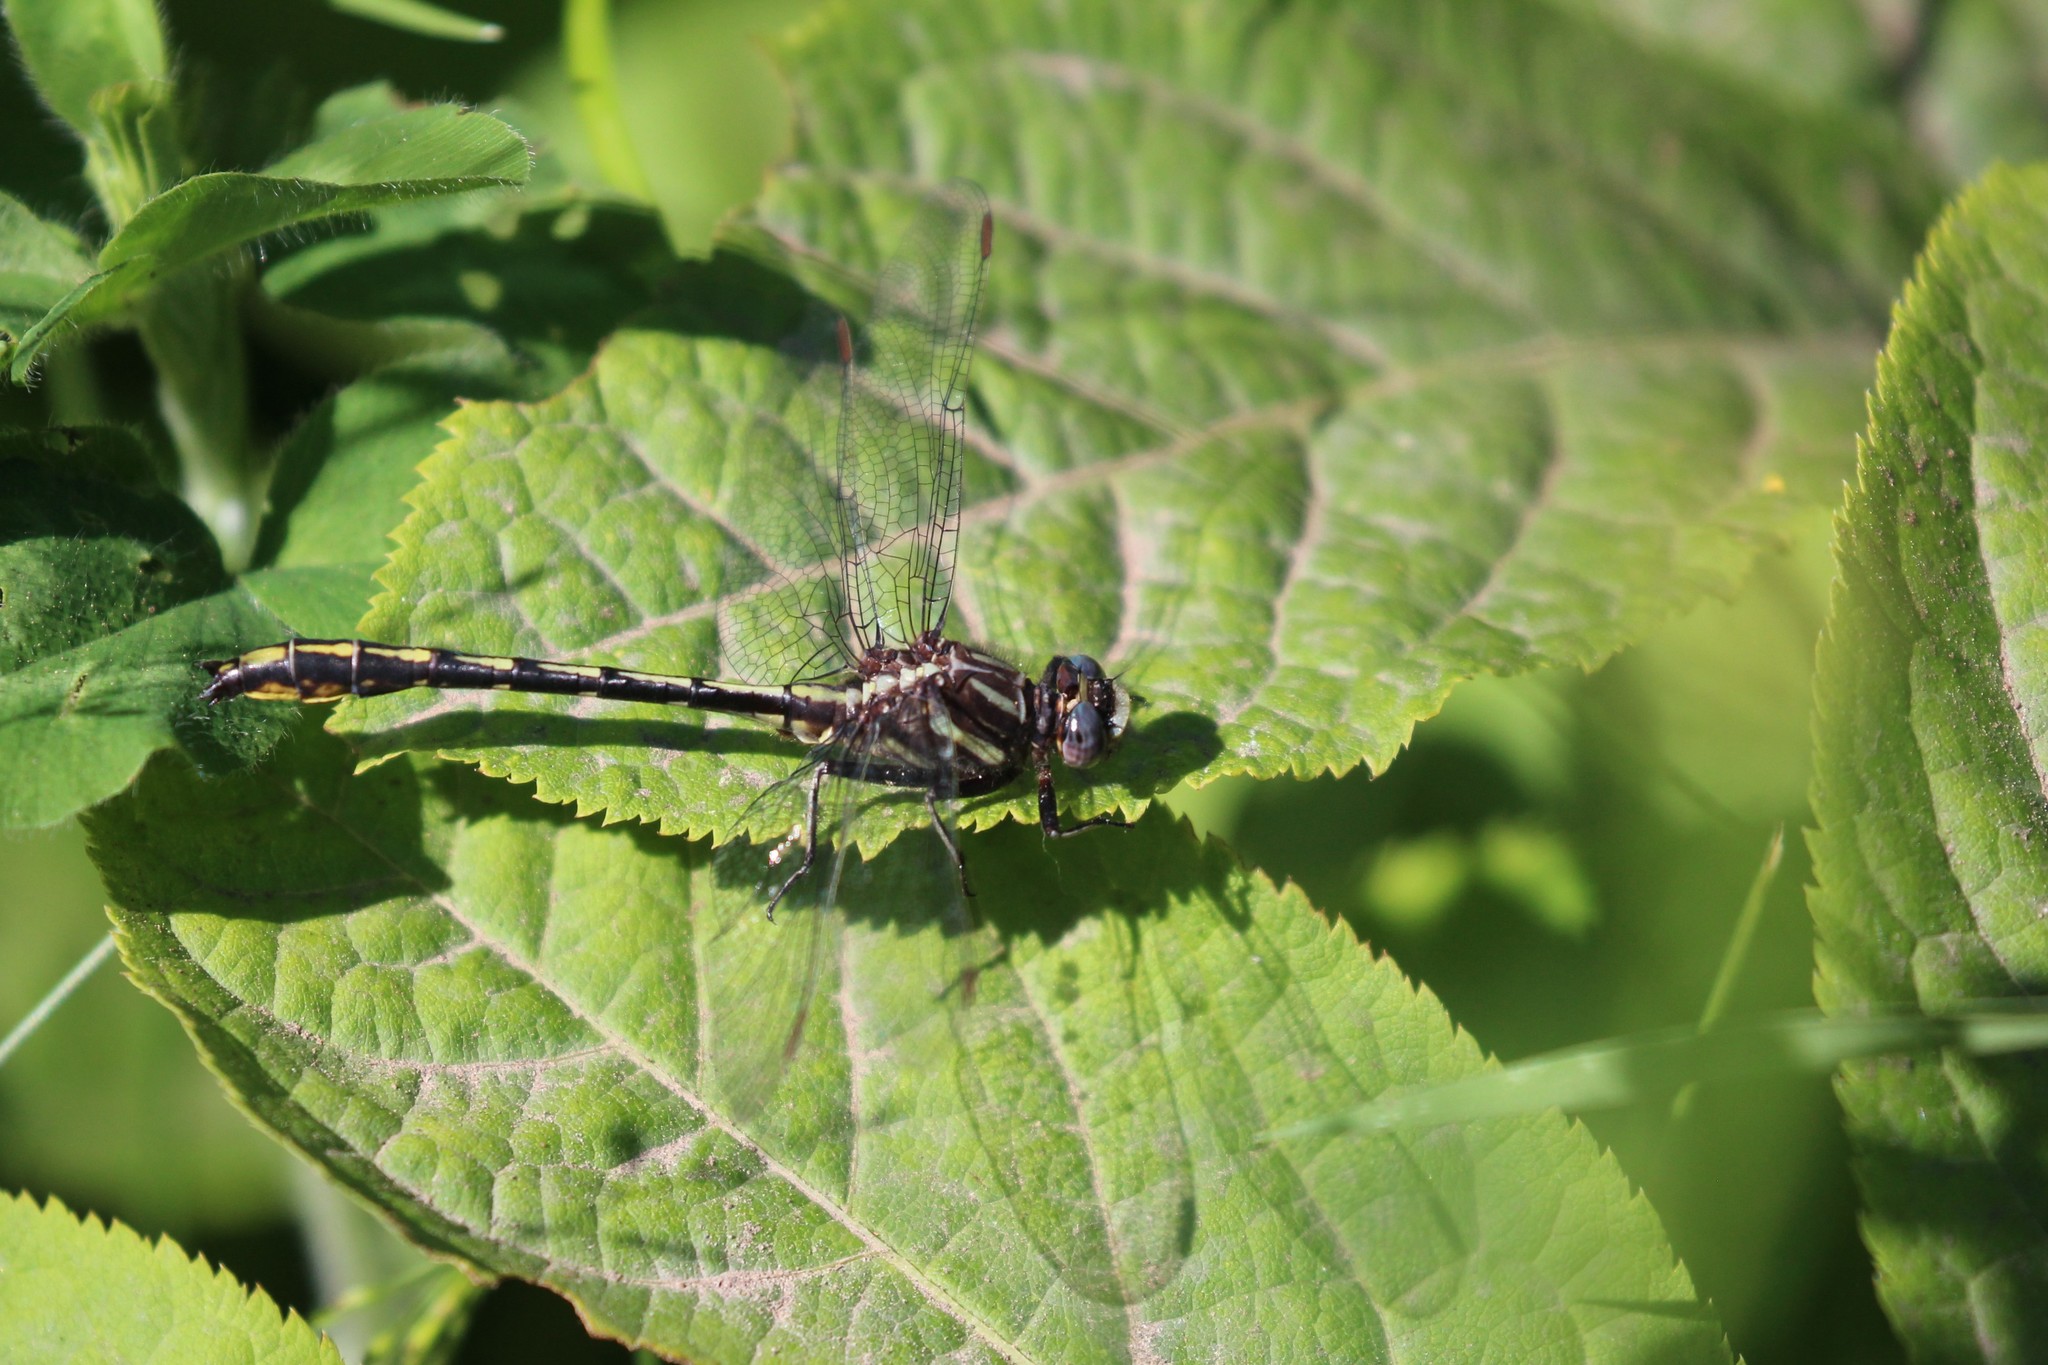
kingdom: Animalia
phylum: Arthropoda
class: Insecta
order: Odonata
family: Gomphidae
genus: Phanogomphus
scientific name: Phanogomphus exilis
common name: Lancet clubtail
